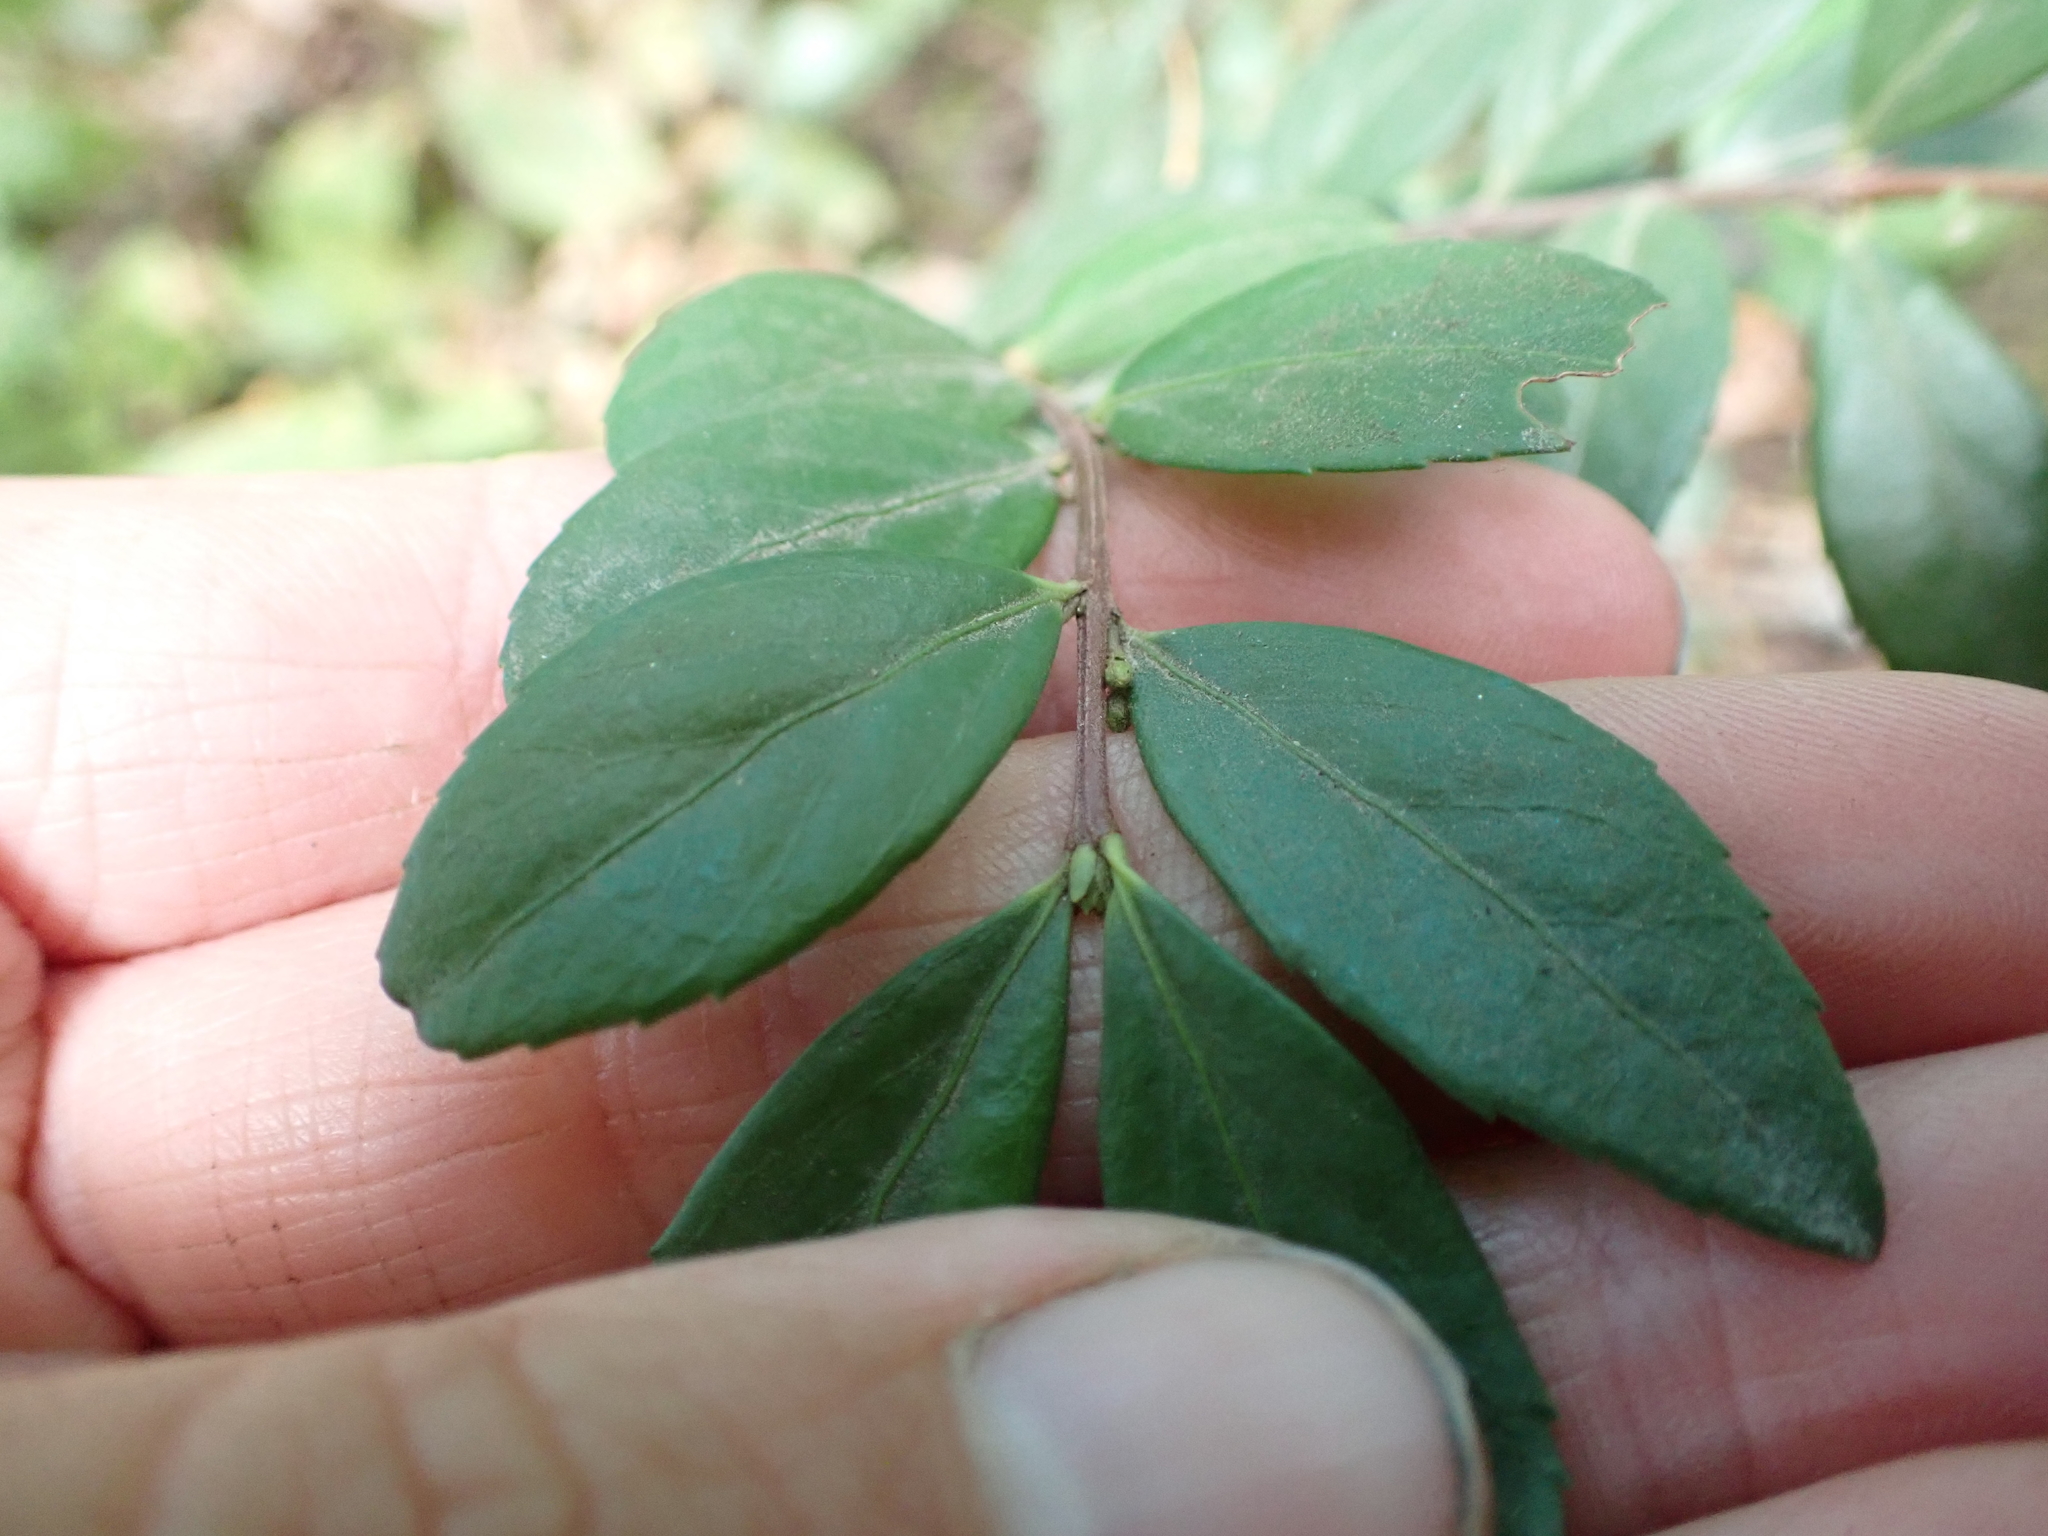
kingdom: Plantae
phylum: Tracheophyta
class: Magnoliopsida
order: Celastrales
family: Celastraceae
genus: Paxistima
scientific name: Paxistima myrsinites
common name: Mountain-lover
